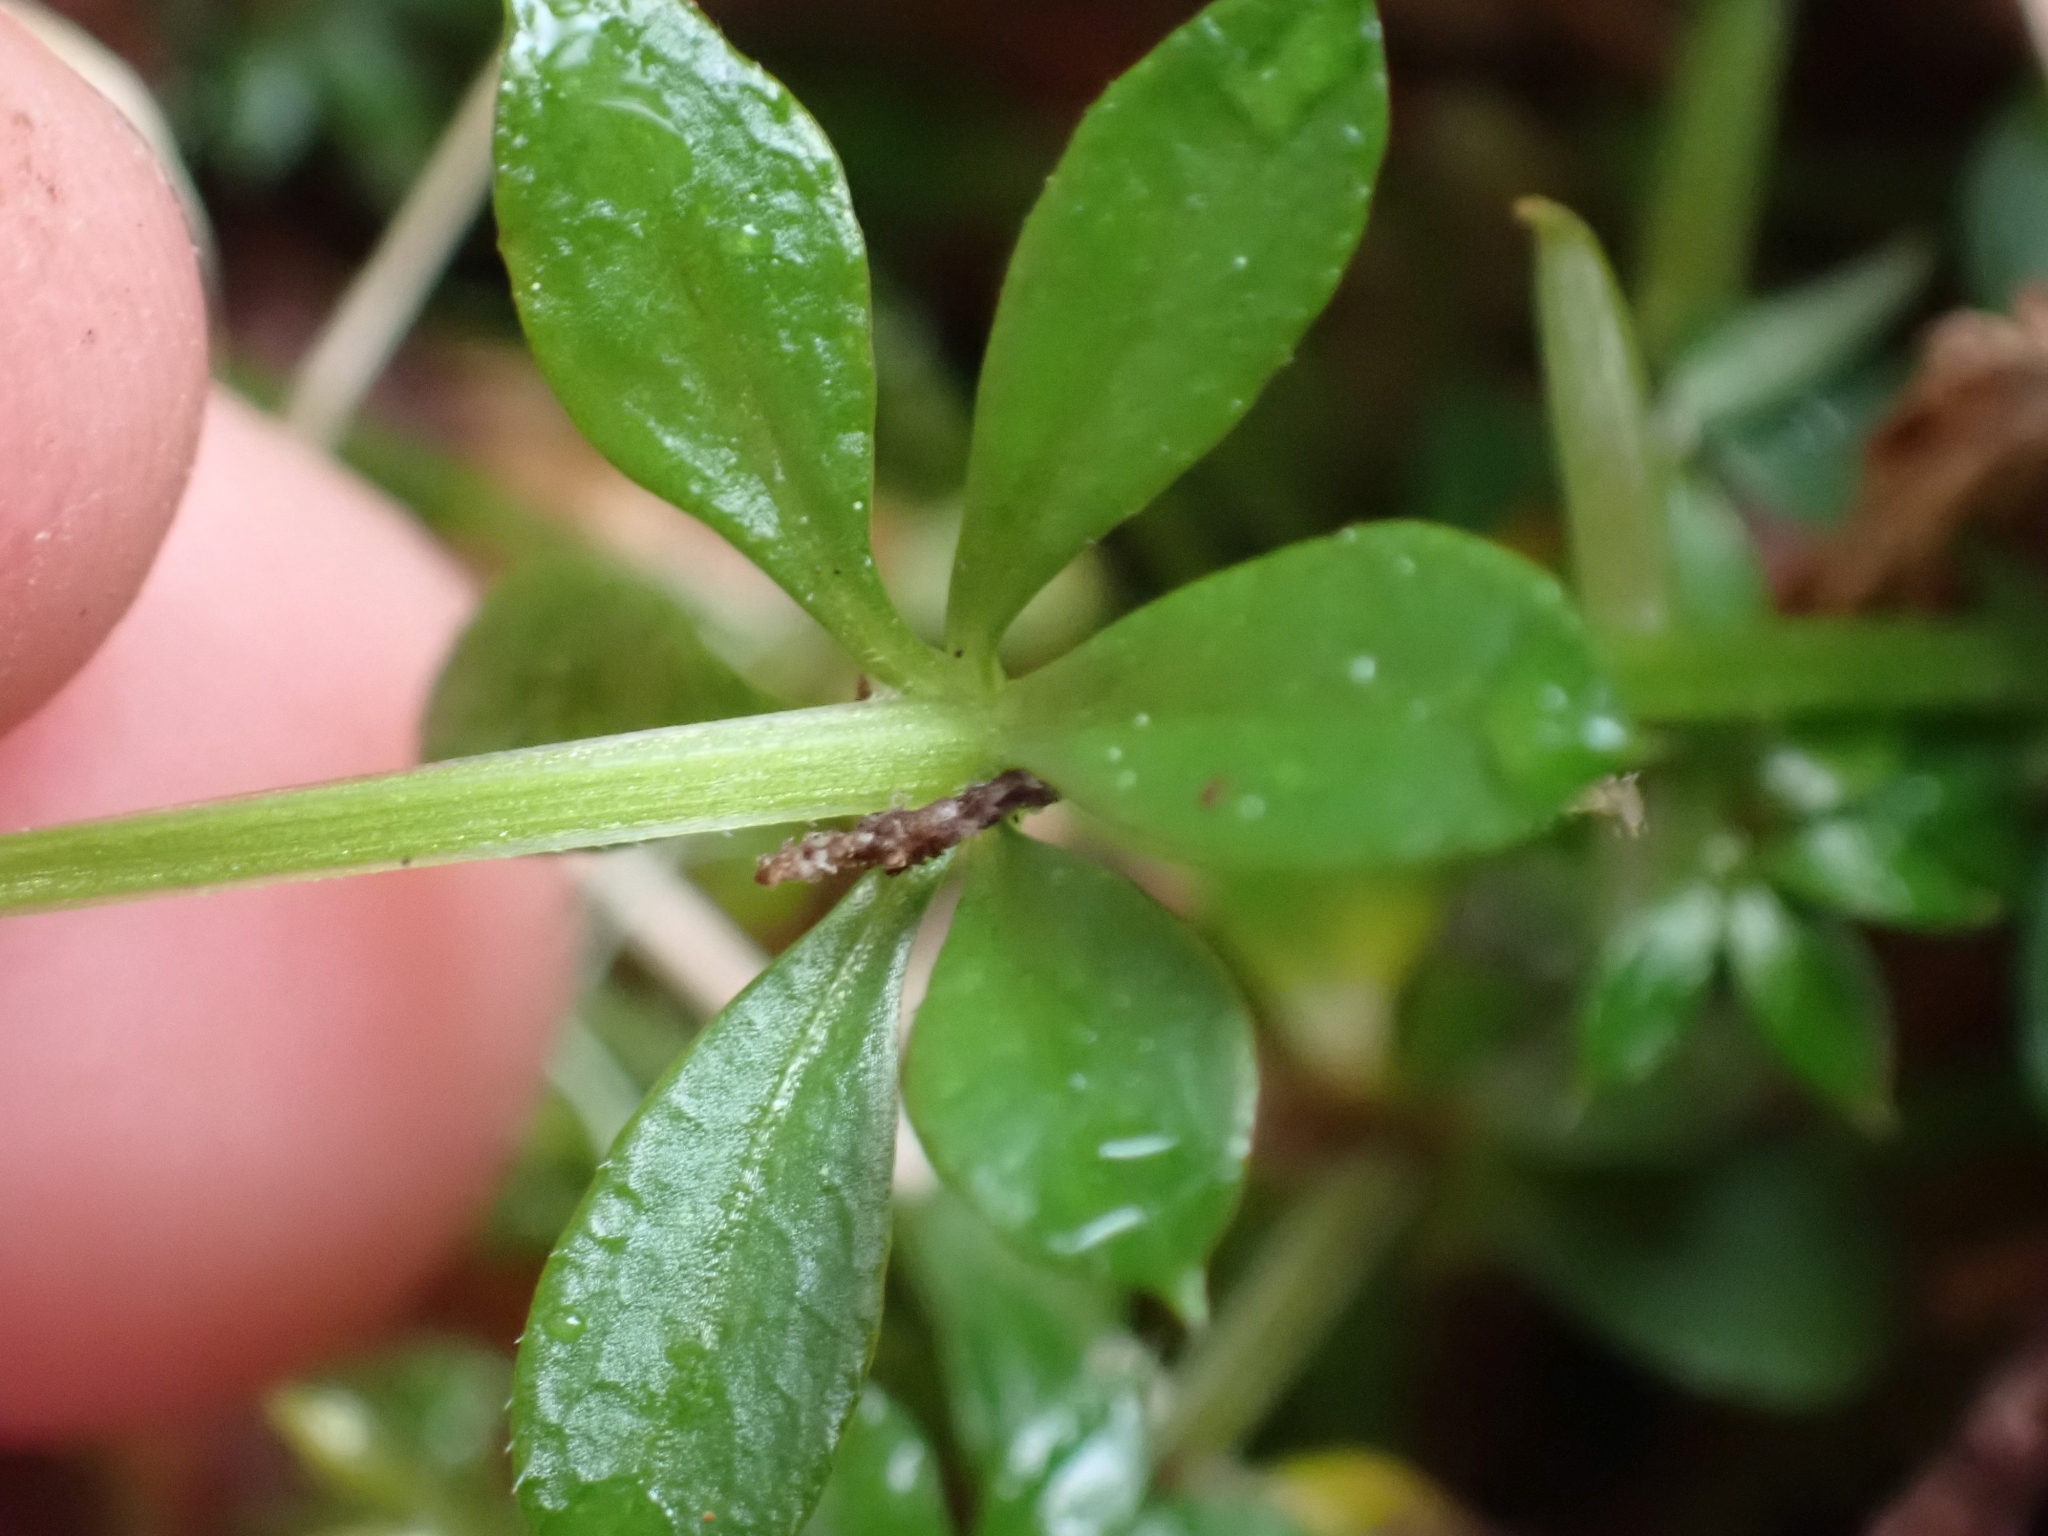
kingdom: Plantae
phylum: Tracheophyta
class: Magnoliopsida
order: Gentianales
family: Rubiaceae
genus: Galium
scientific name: Galium triflorum
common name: Fragrant bedstraw
